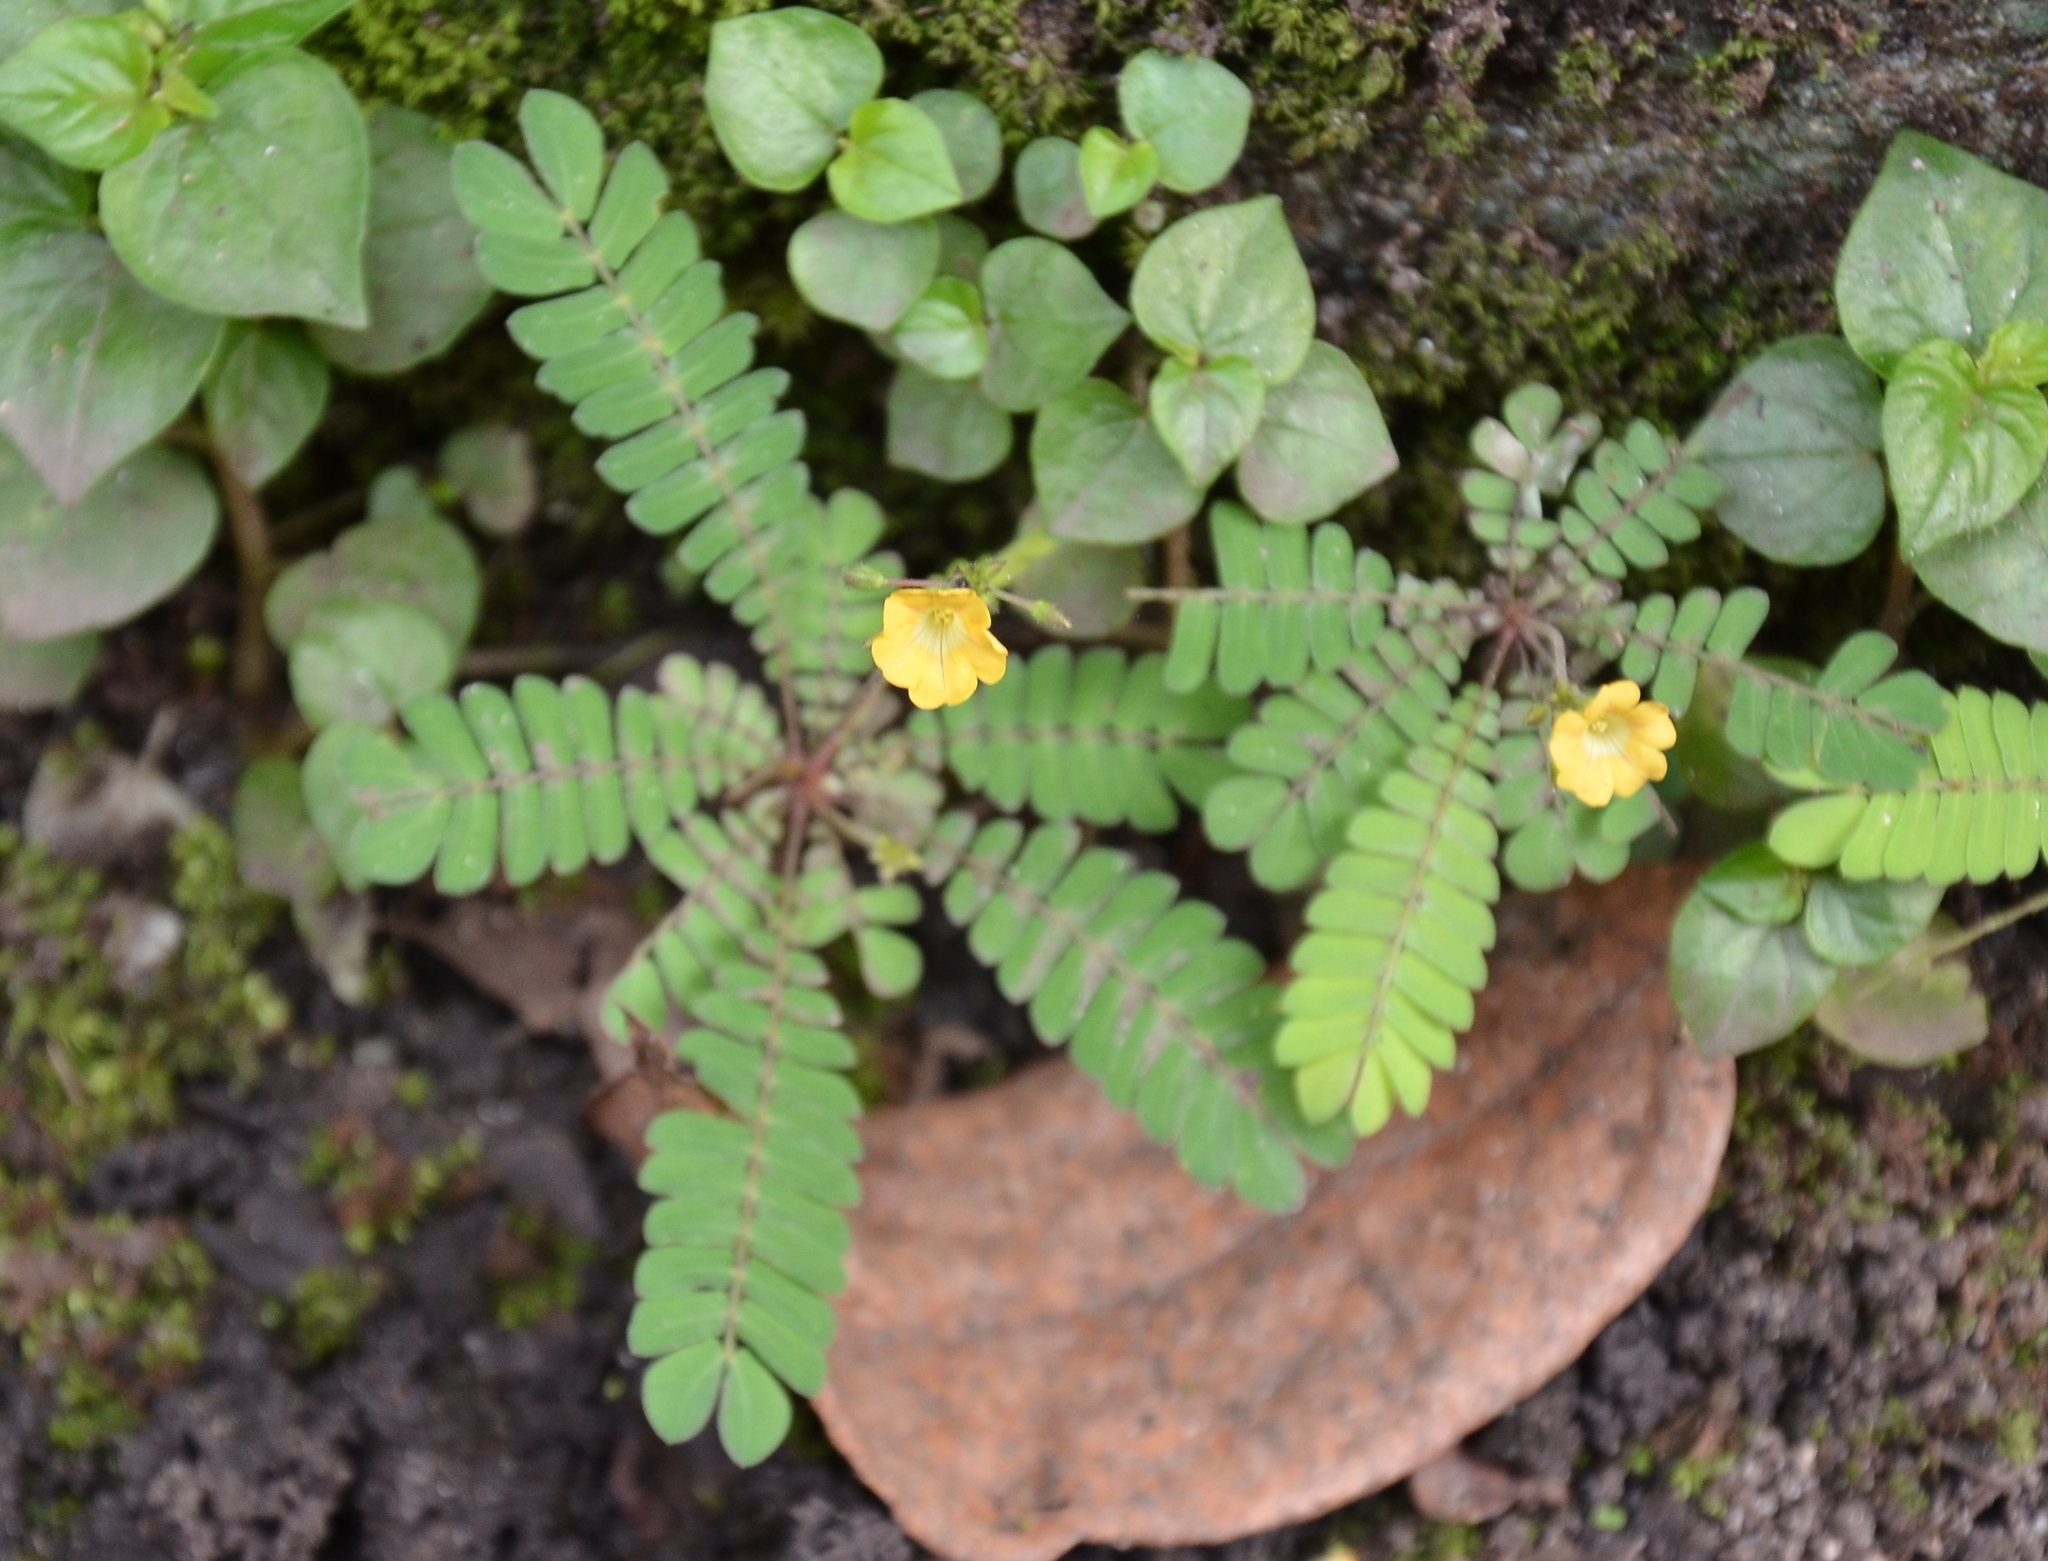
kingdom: Plantae
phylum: Tracheophyta
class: Magnoliopsida
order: Oxalidales
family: Oxalidaceae
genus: Biophytum
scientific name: Biophytum sensitivum
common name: Lifeplant
